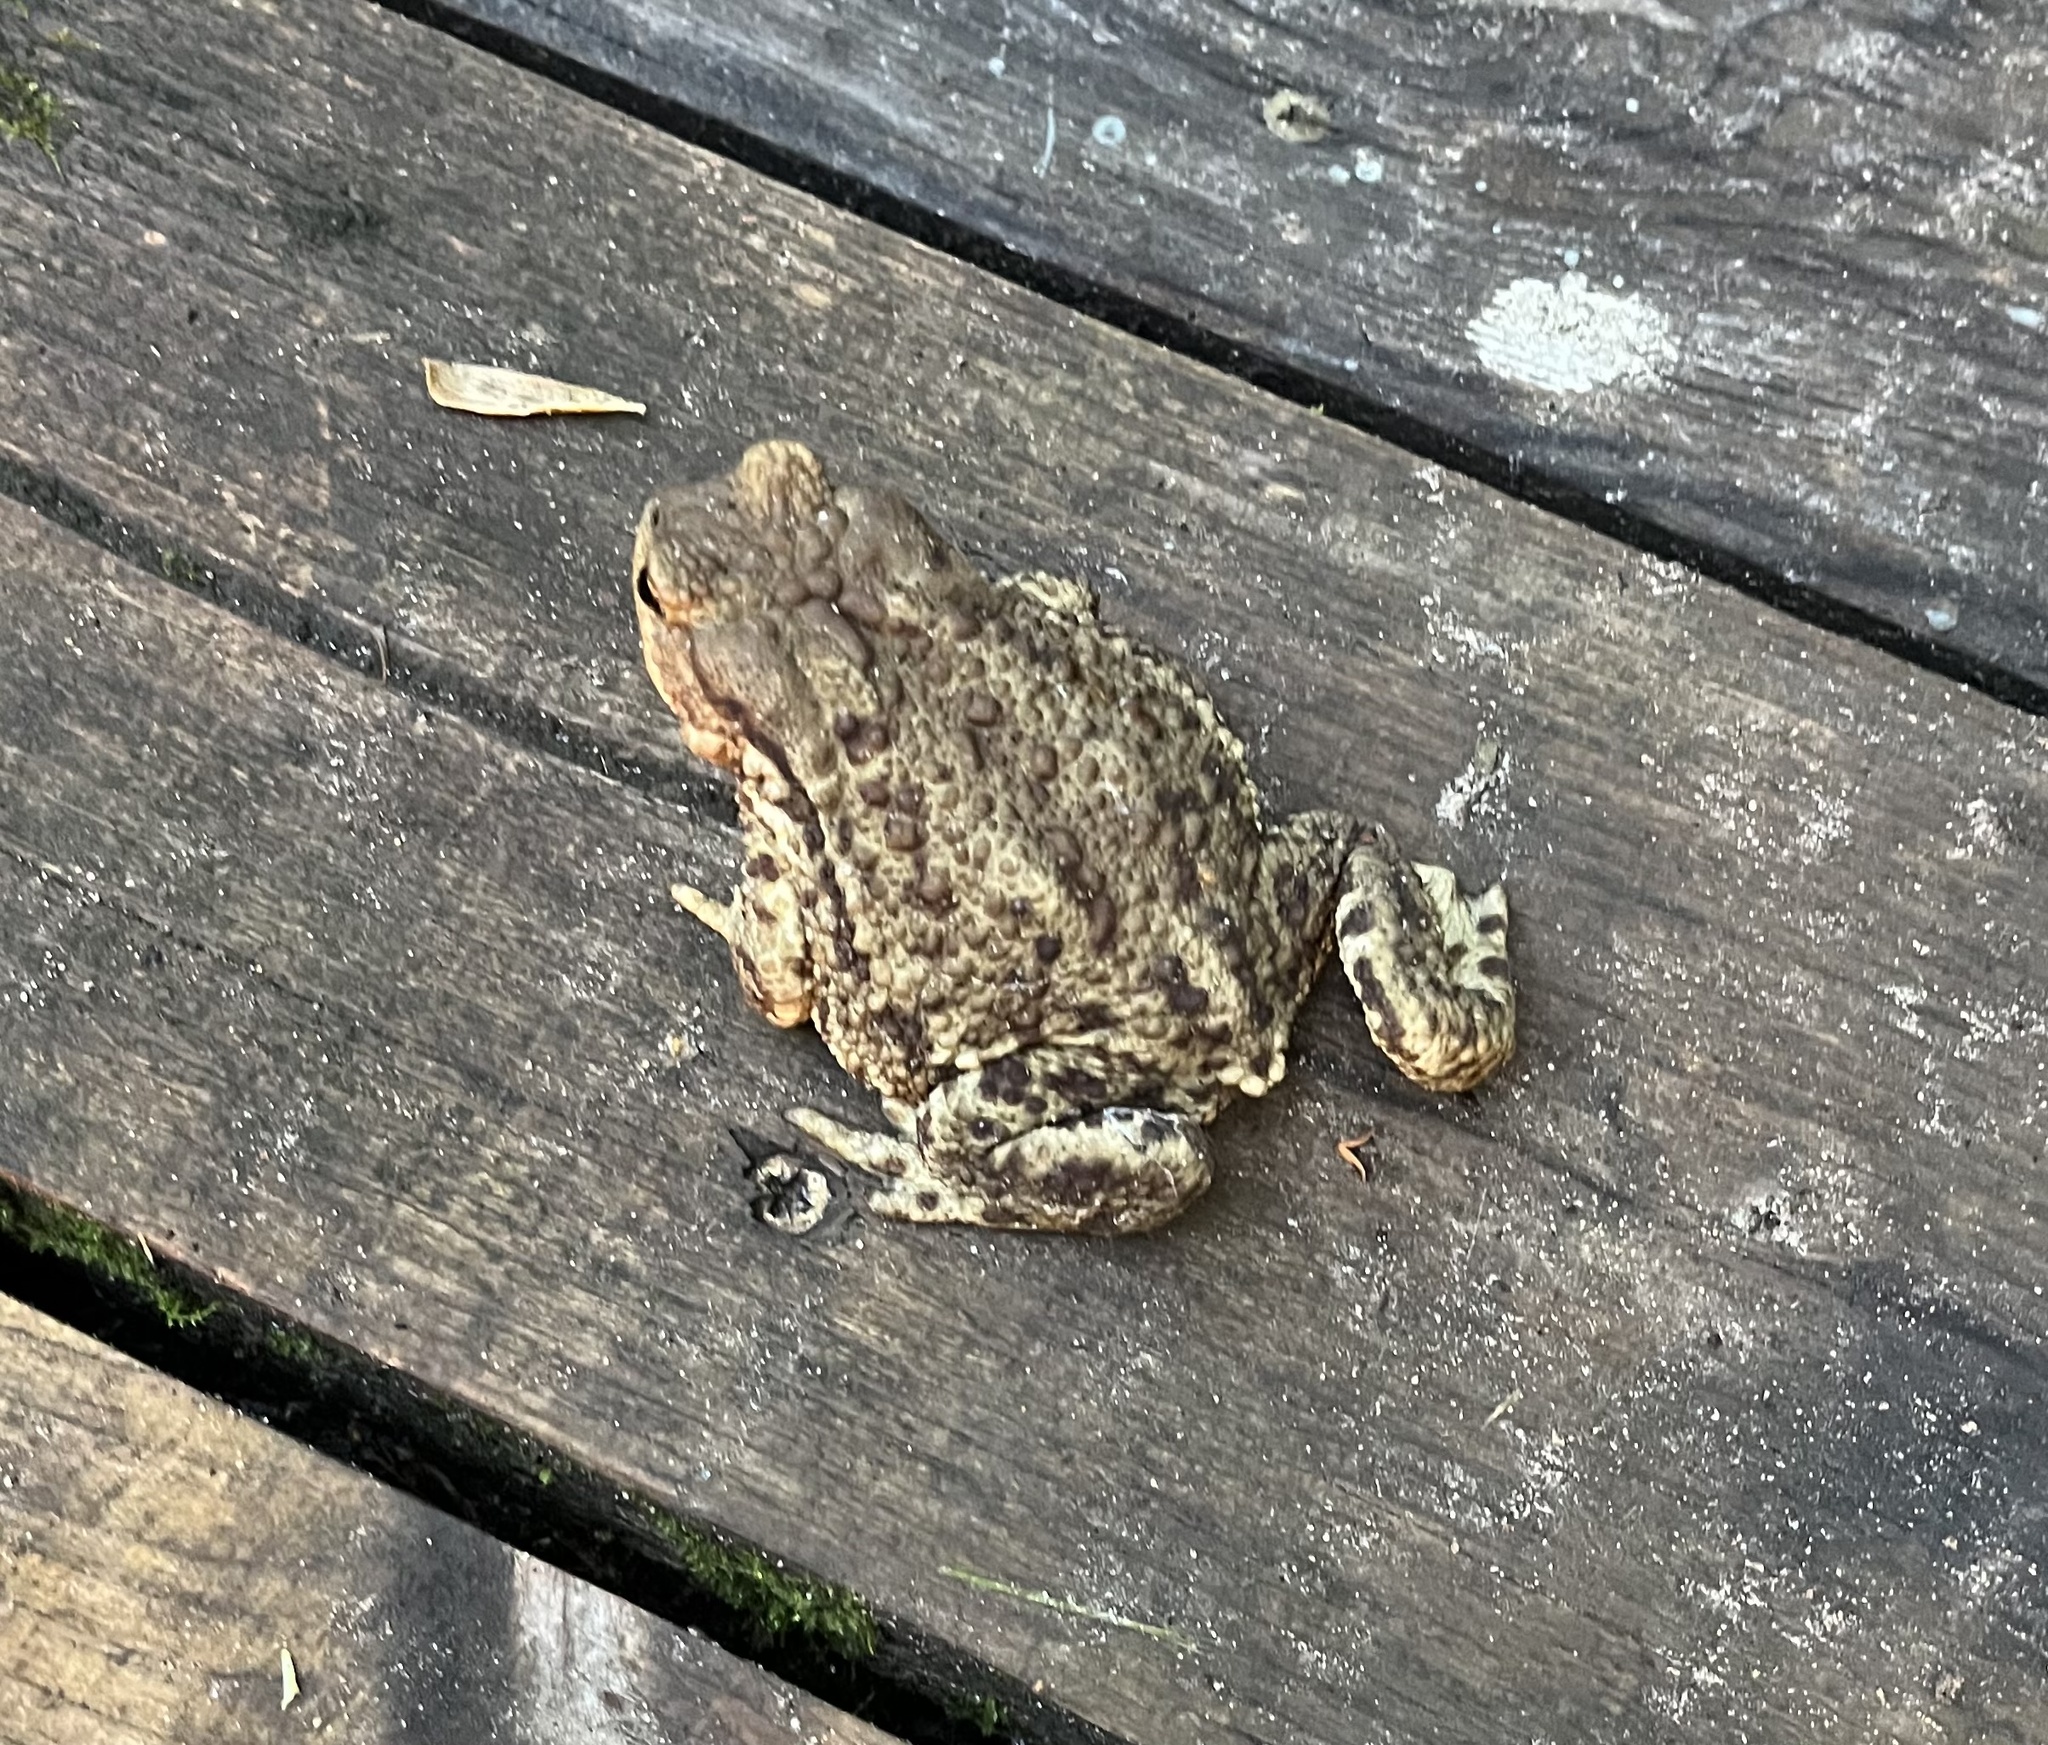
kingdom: Animalia
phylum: Chordata
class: Amphibia
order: Anura
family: Bufonidae
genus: Bufo
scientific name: Bufo bufo
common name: Common toad
